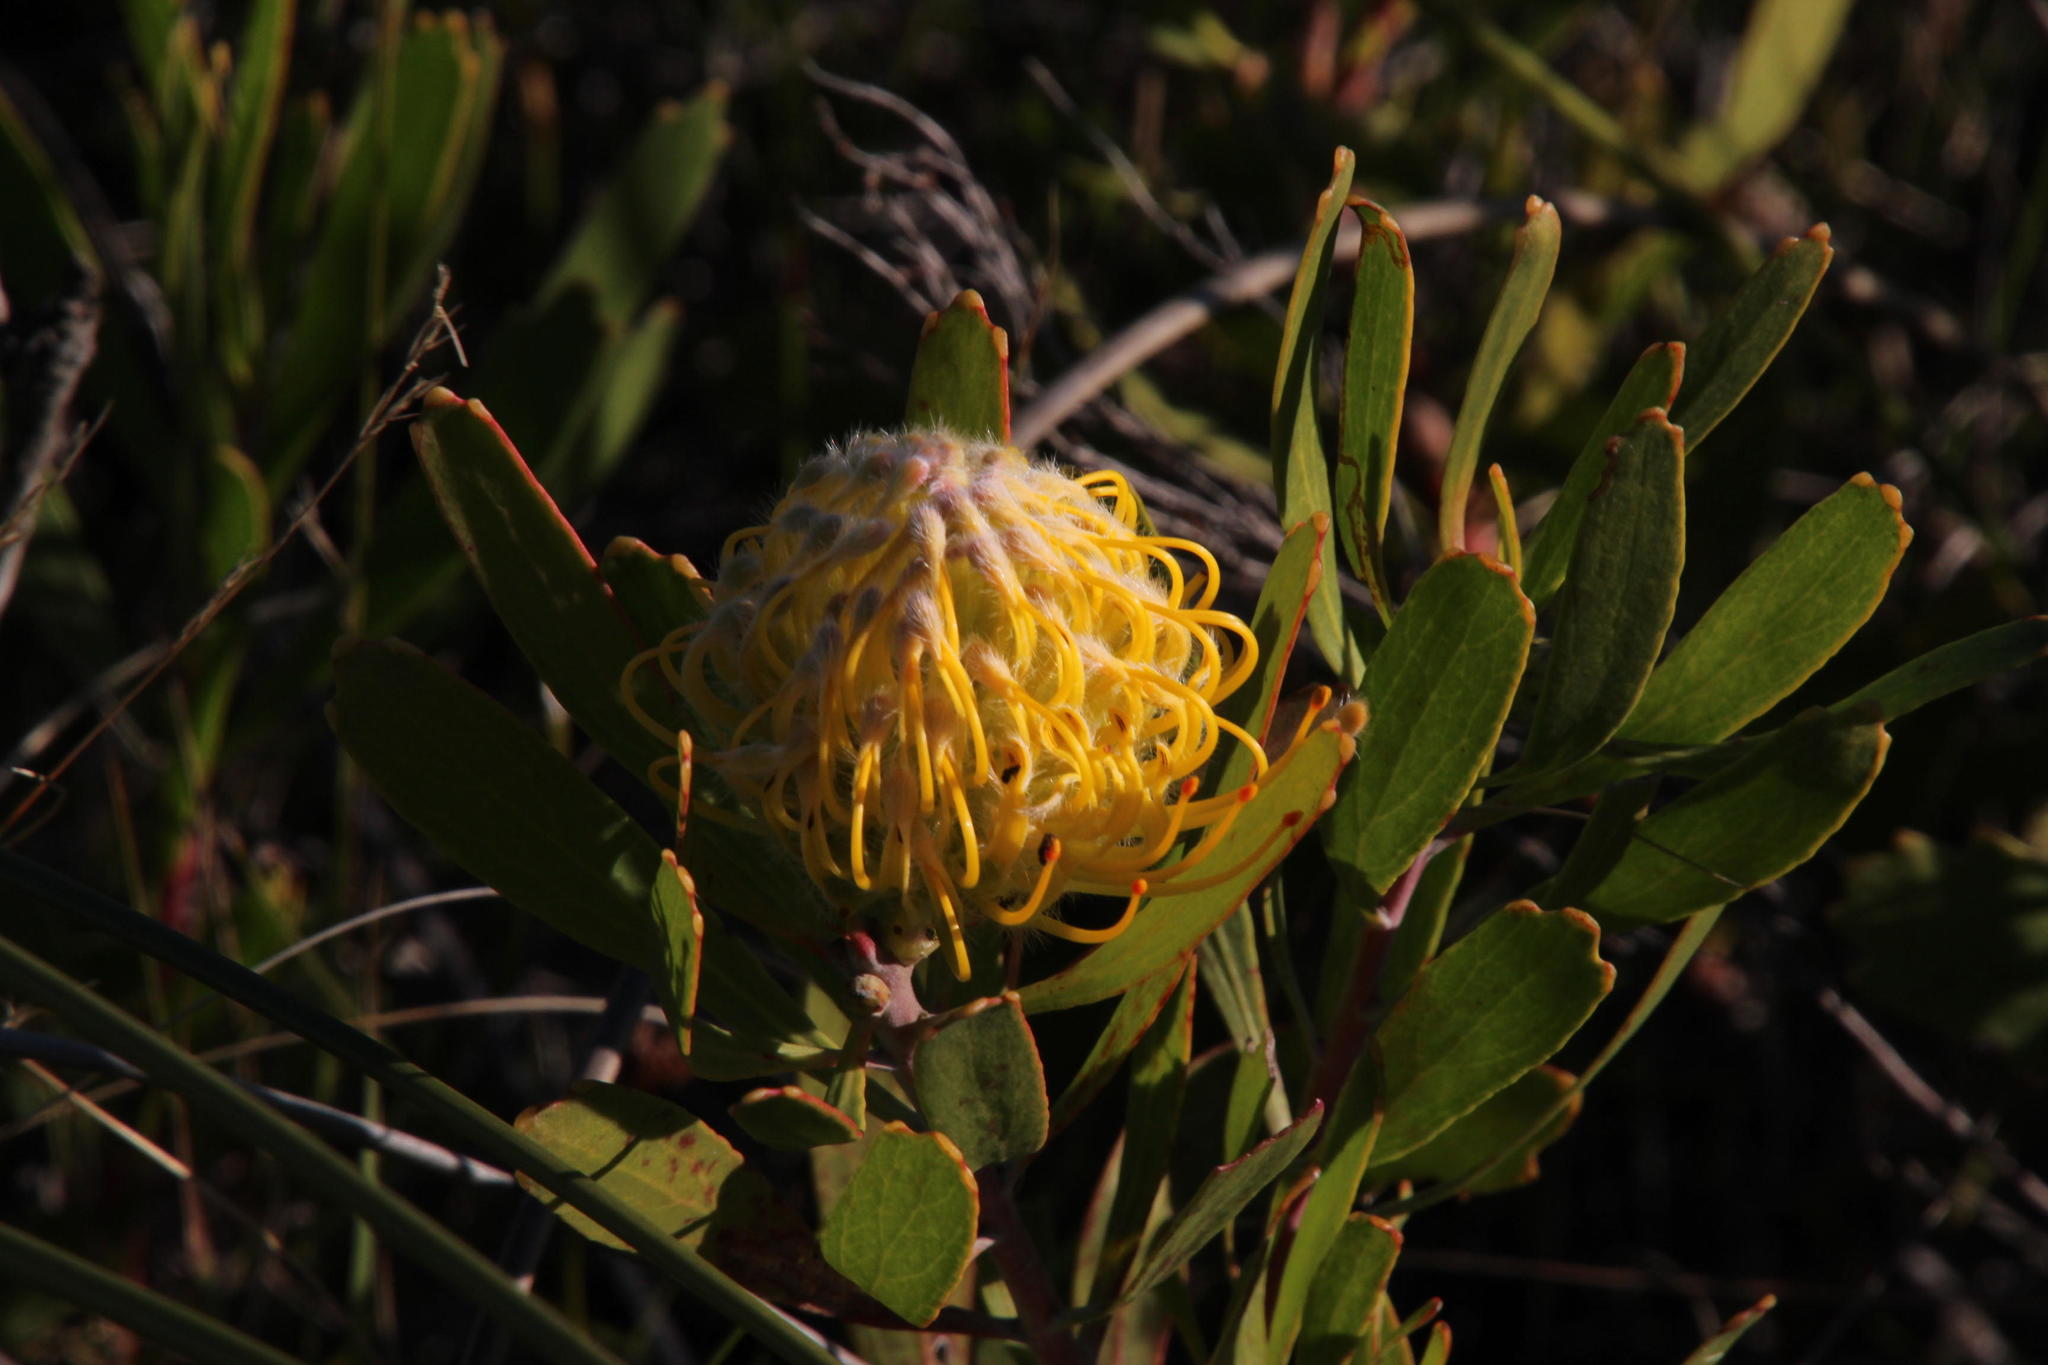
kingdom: Plantae
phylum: Tracheophyta
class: Magnoliopsida
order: Proteales
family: Proteaceae
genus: Leucospermum
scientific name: Leucospermum cuneiforme
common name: Common pincushion
